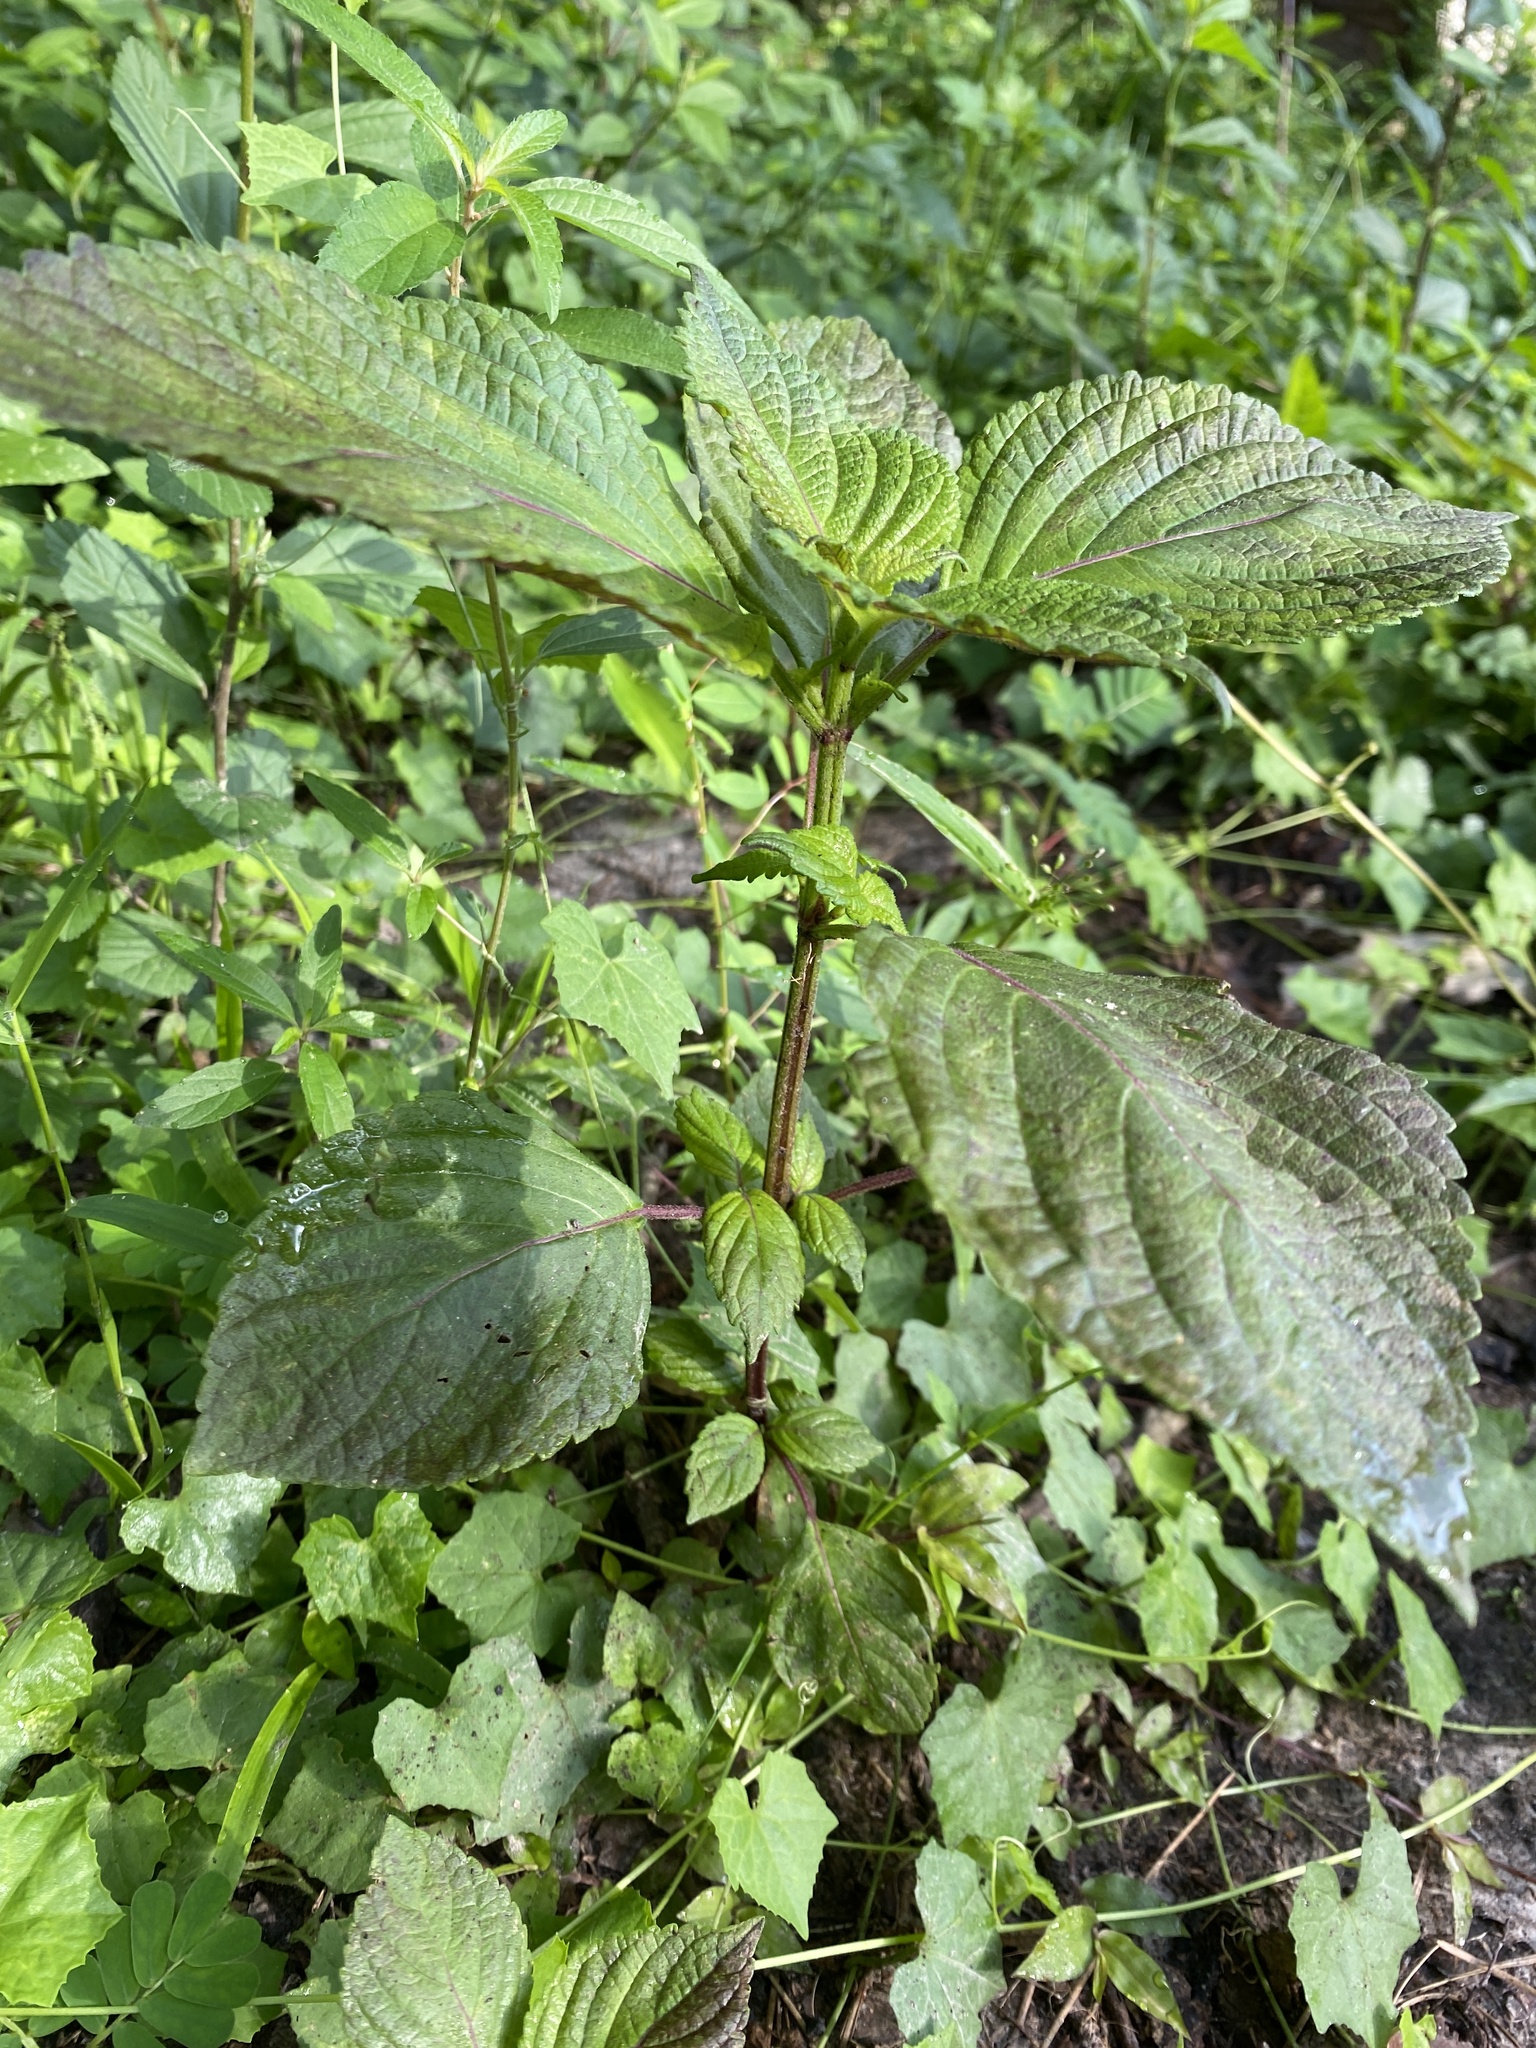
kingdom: Plantae
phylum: Tracheophyta
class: Magnoliopsida
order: Lamiales
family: Lamiaceae
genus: Perilla
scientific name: Perilla frutescens
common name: Perilla
